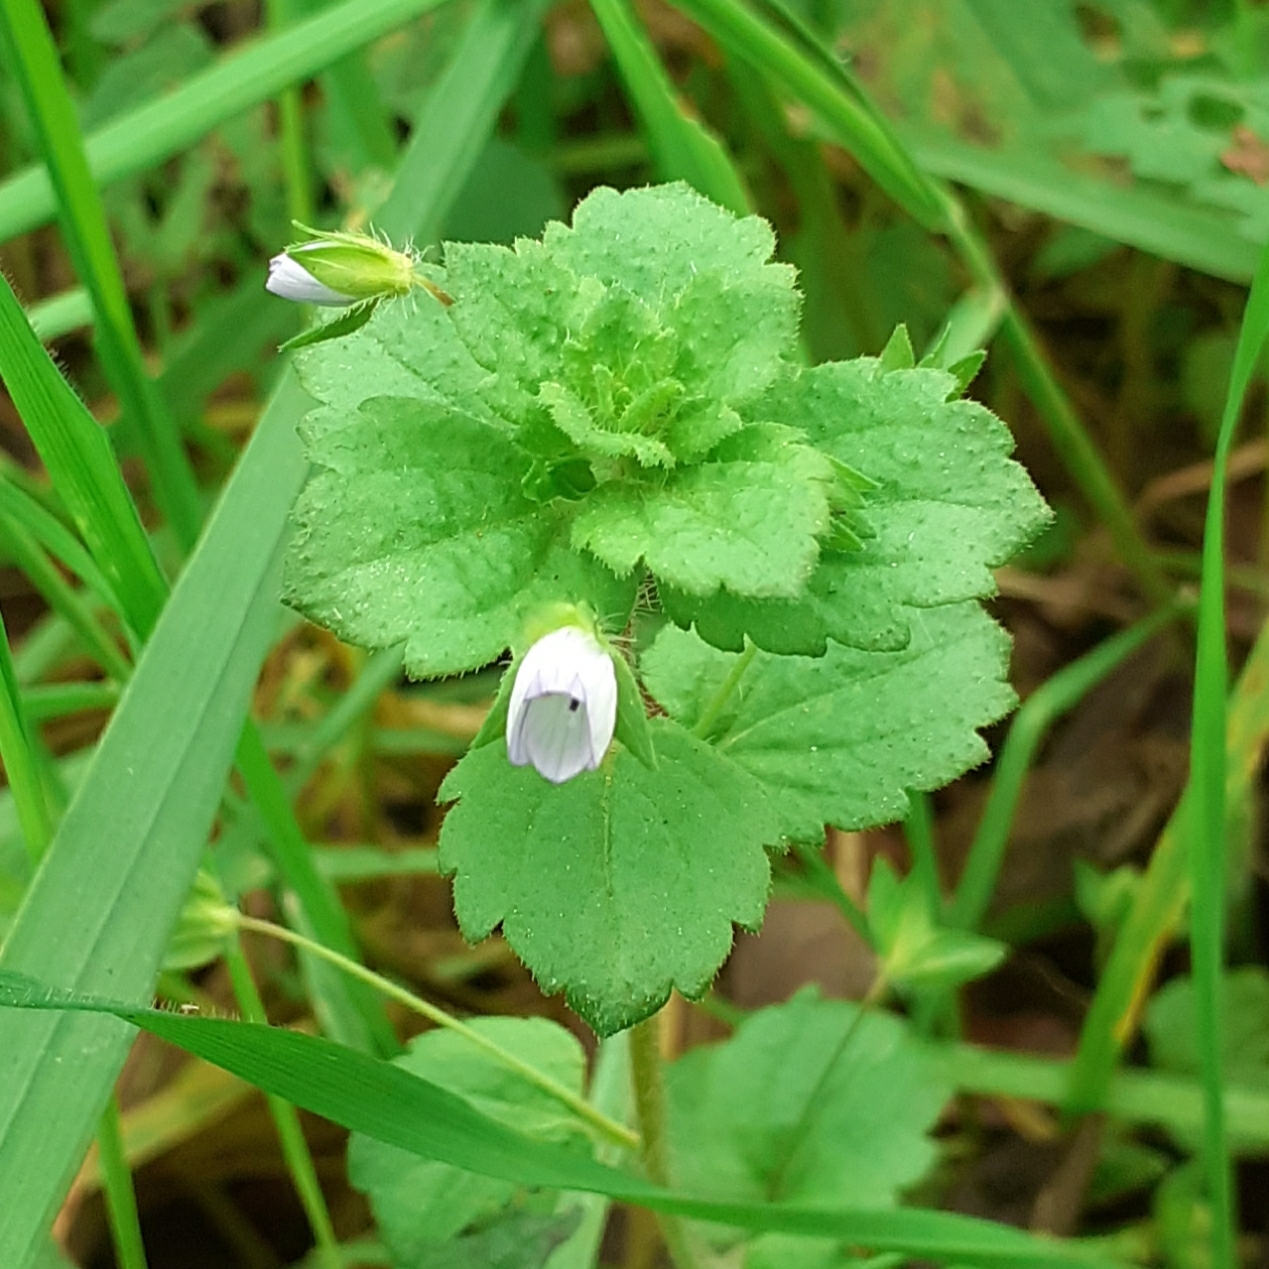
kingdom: Plantae
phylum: Tracheophyta
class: Magnoliopsida
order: Lamiales
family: Plantaginaceae
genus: Veronica
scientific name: Veronica persica
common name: Common field-speedwell
